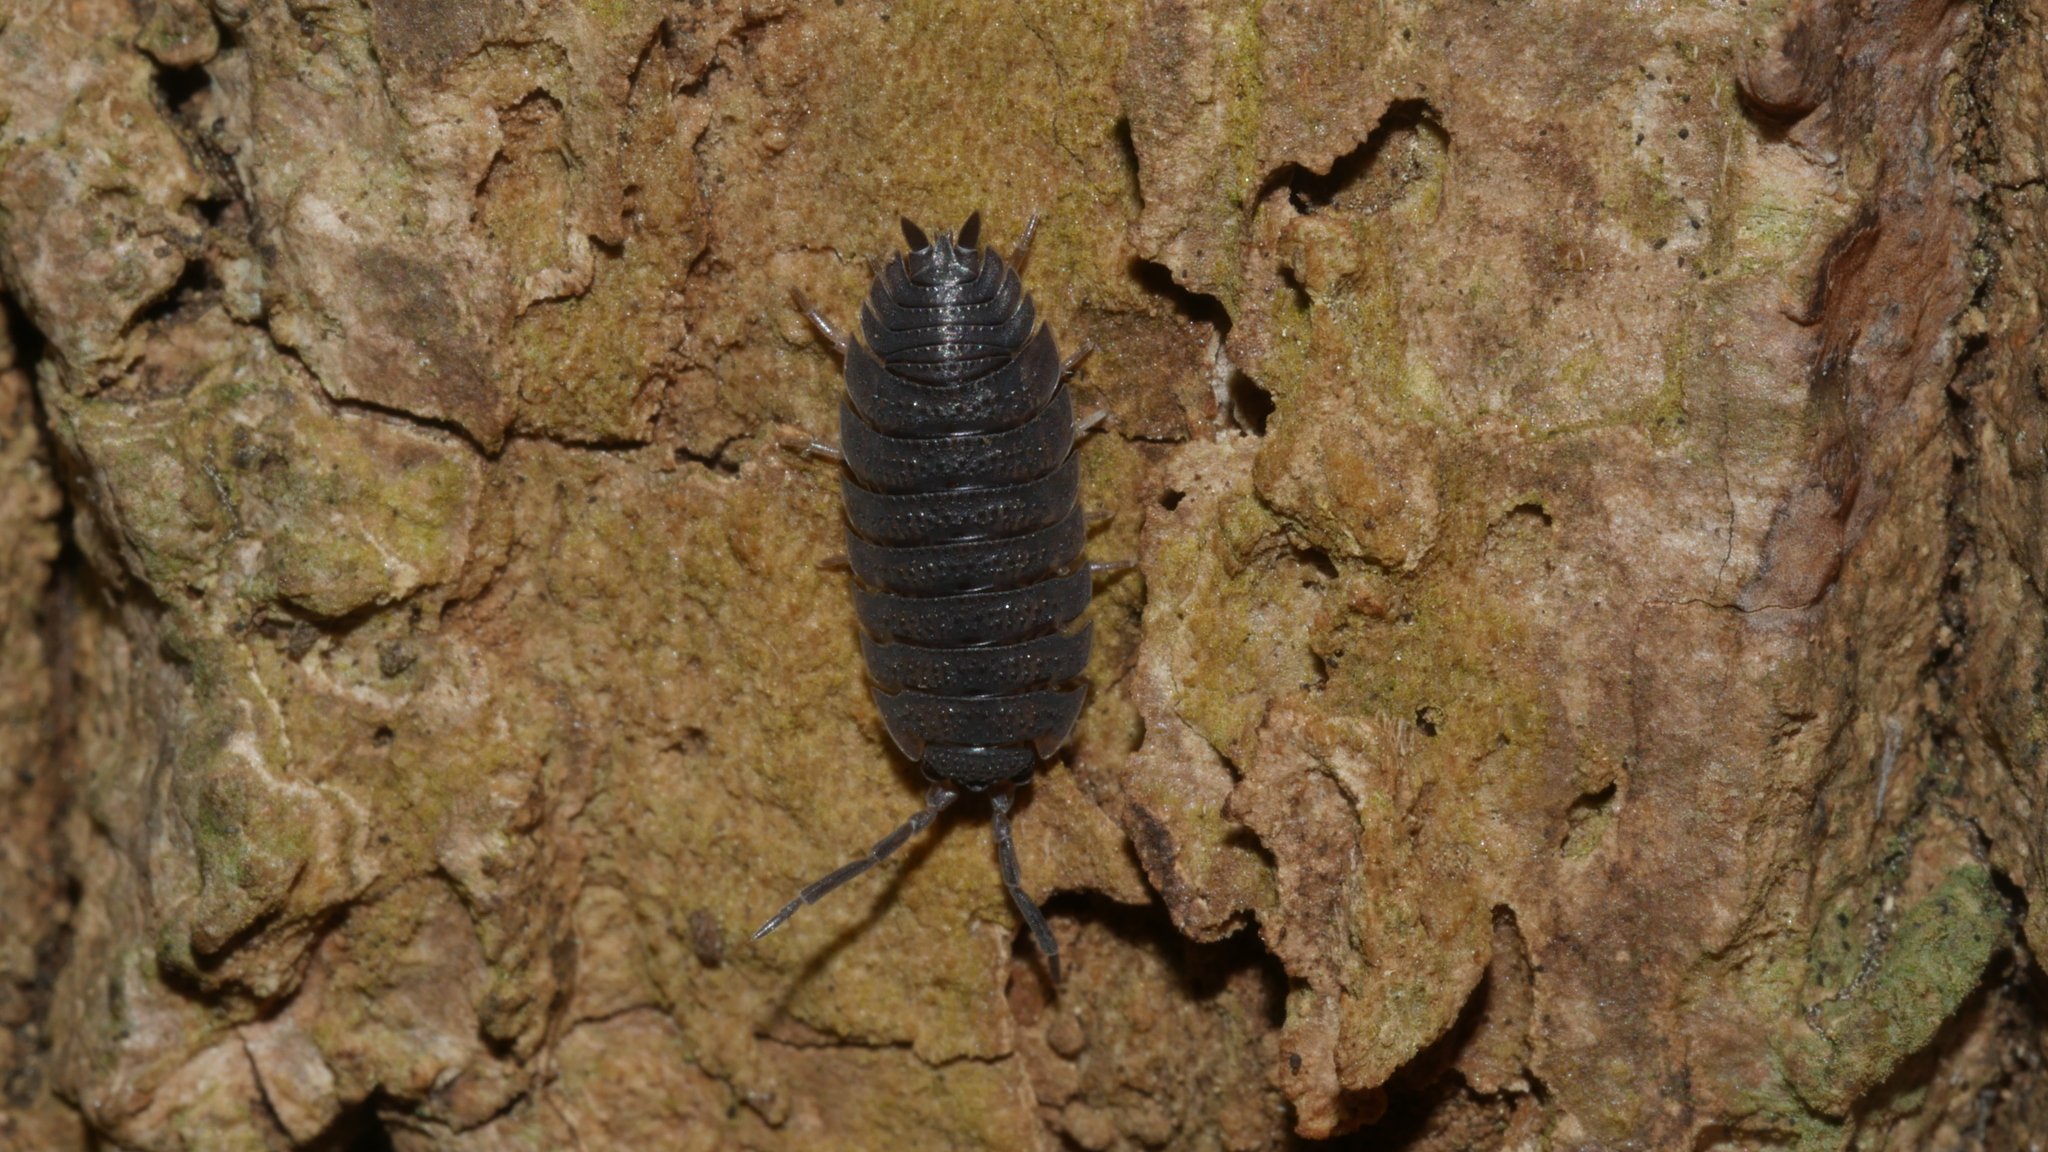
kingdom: Animalia
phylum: Arthropoda
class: Malacostraca
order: Isopoda
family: Porcellionidae
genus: Porcellio
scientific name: Porcellio scaber
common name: Common rough woodlouse
